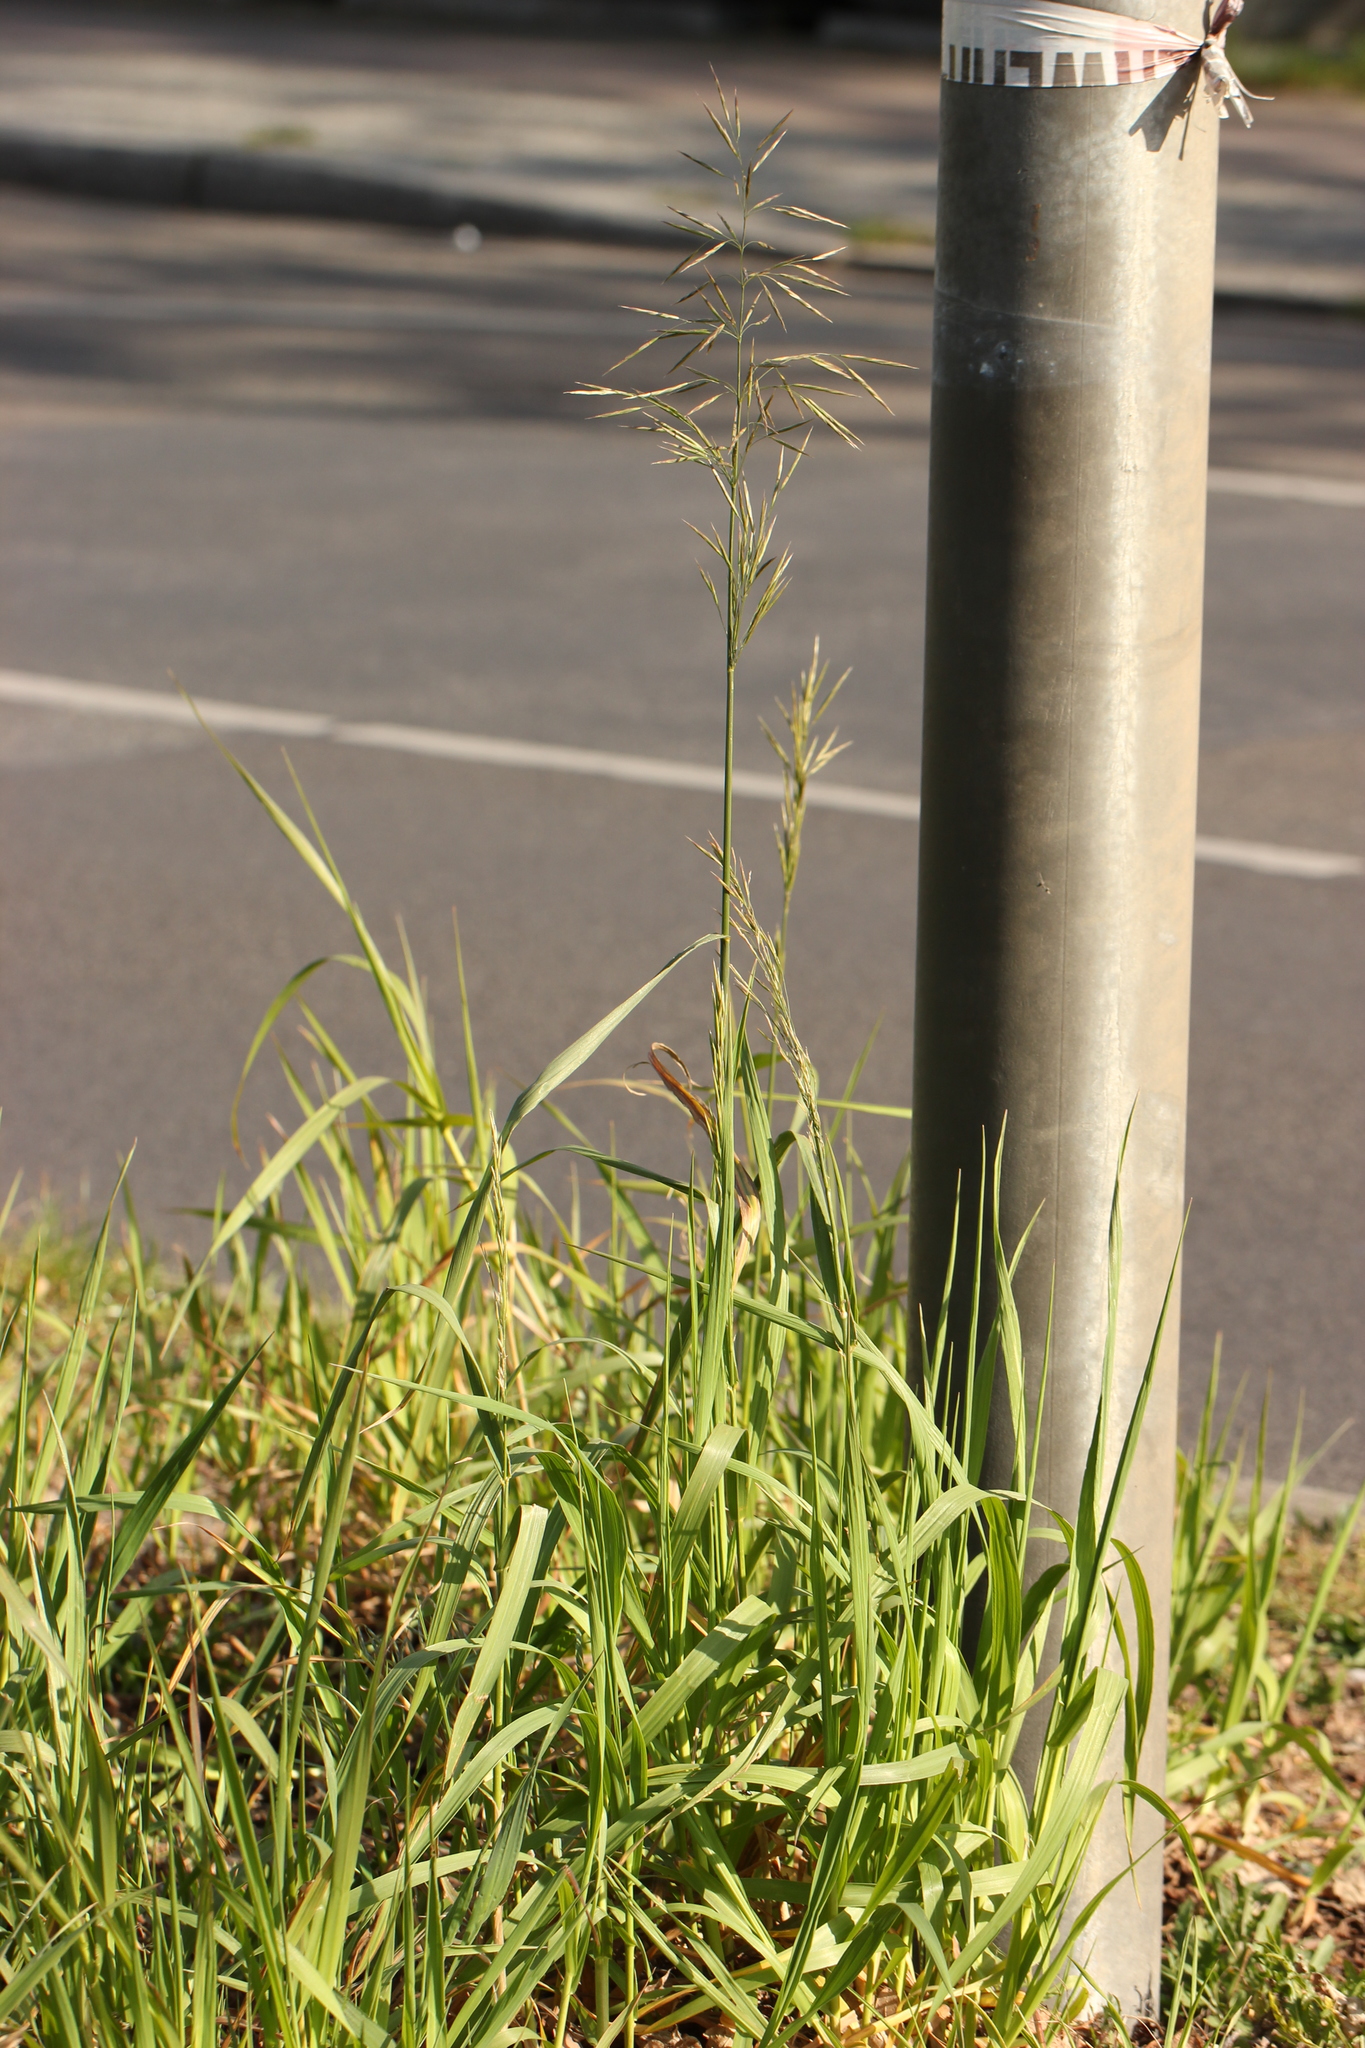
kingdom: Plantae
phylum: Tracheophyta
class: Liliopsida
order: Poales
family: Poaceae
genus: Bromus
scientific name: Bromus inermis
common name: Smooth brome
